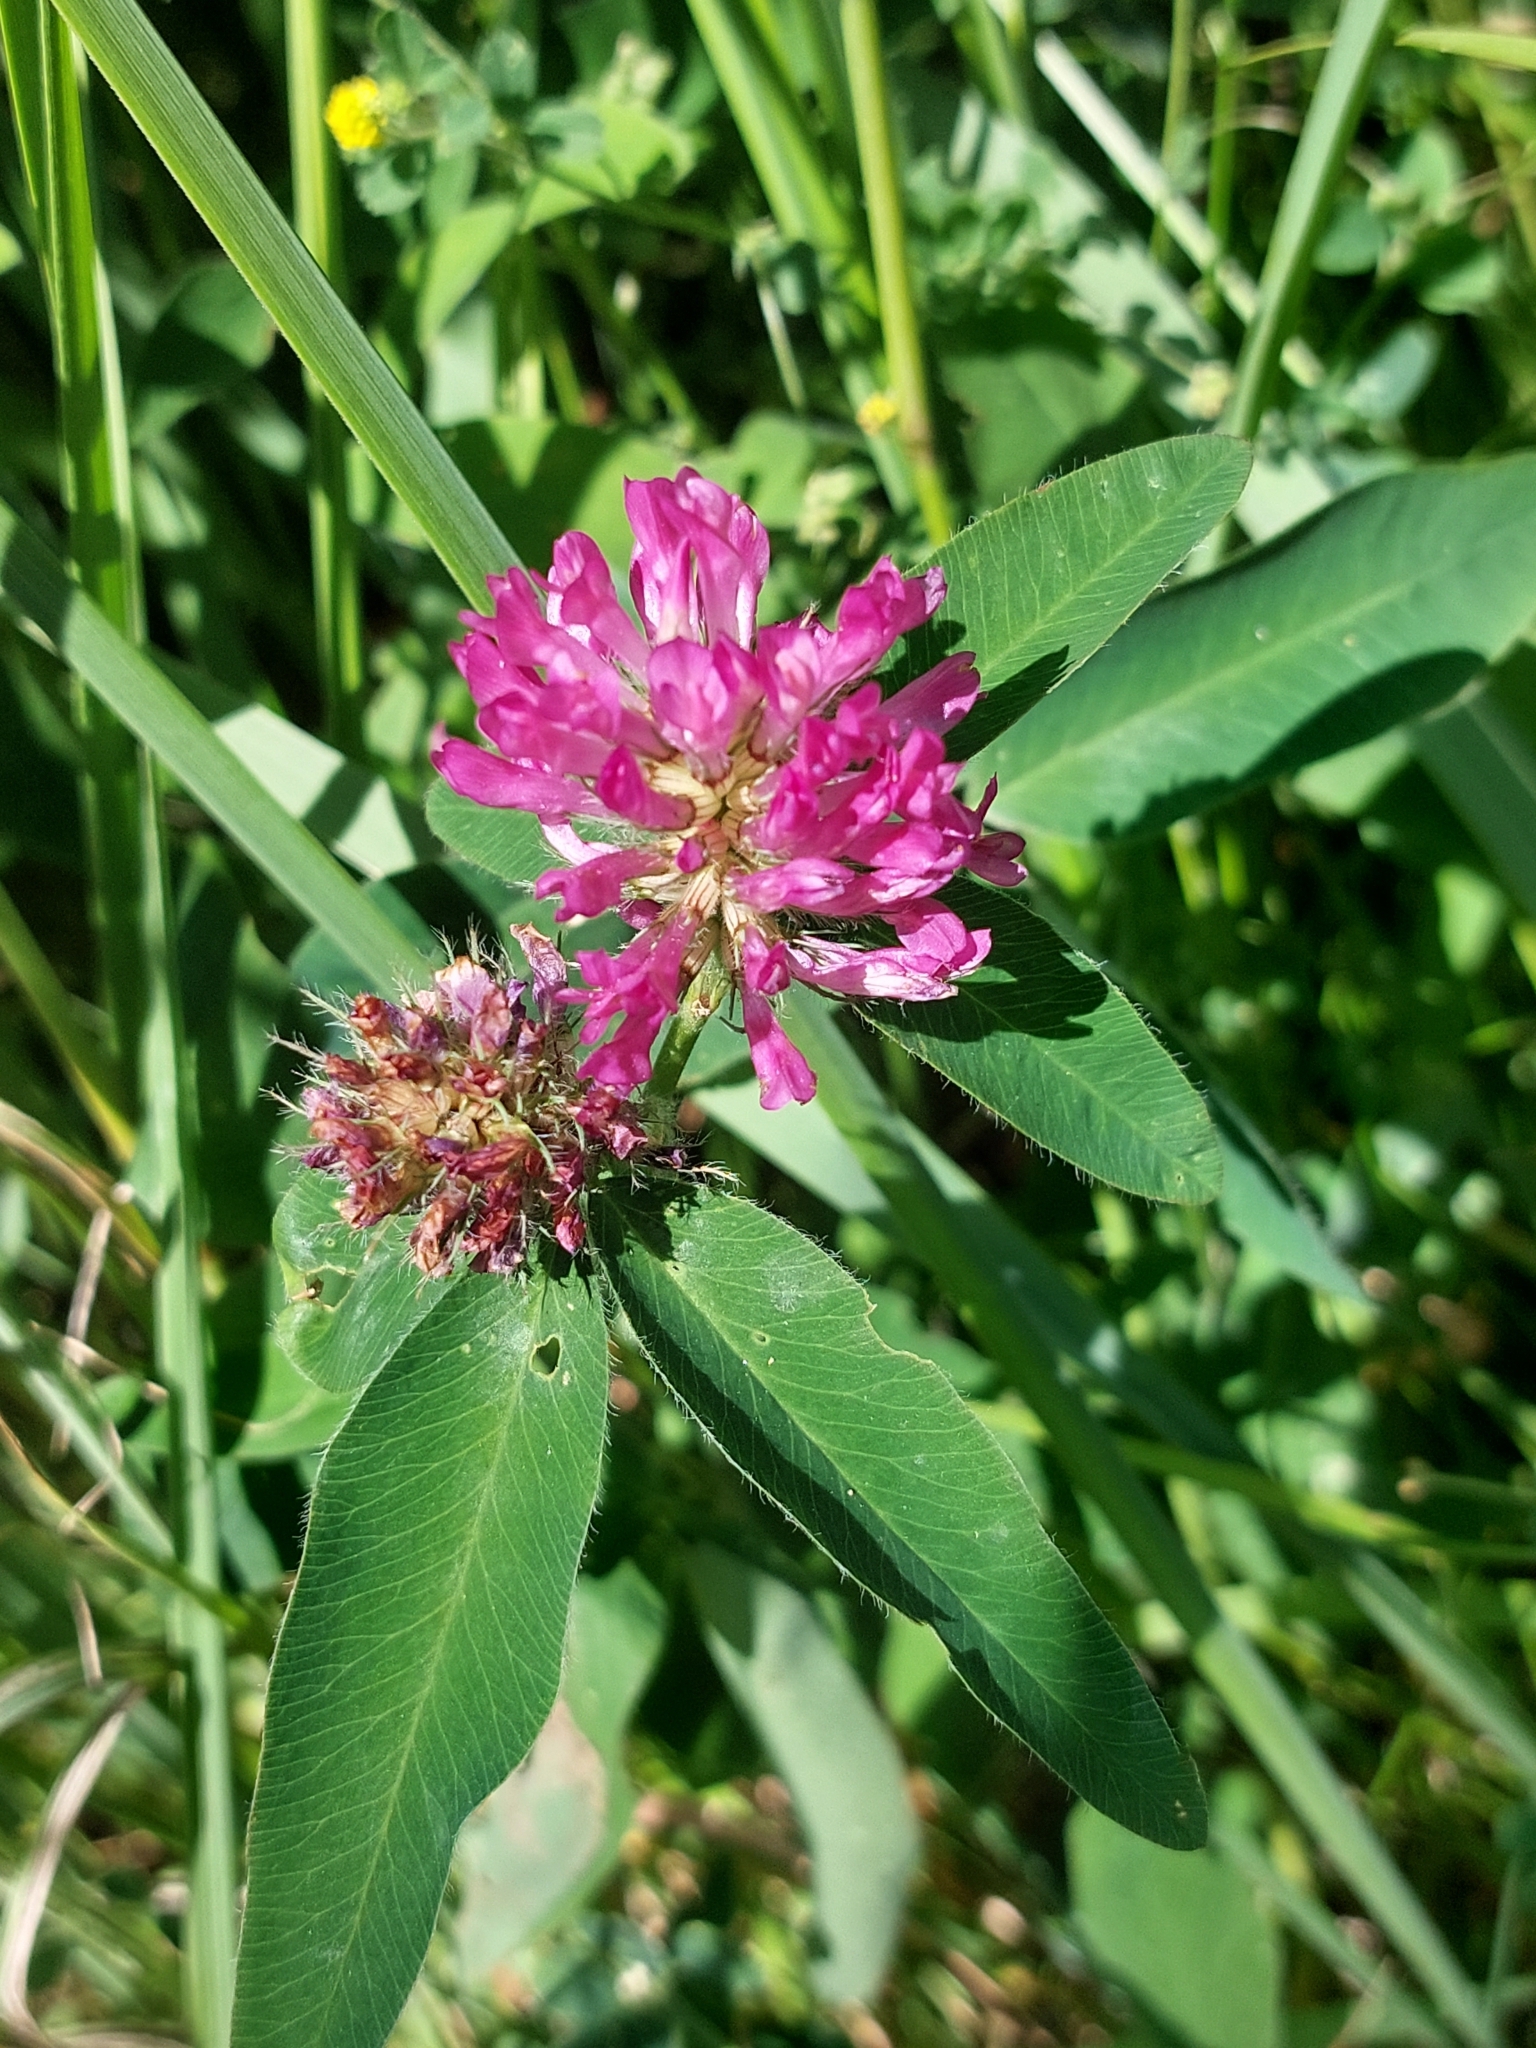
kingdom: Plantae
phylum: Tracheophyta
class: Magnoliopsida
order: Fabales
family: Fabaceae
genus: Trifolium
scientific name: Trifolium medium
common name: Zigzag clover
